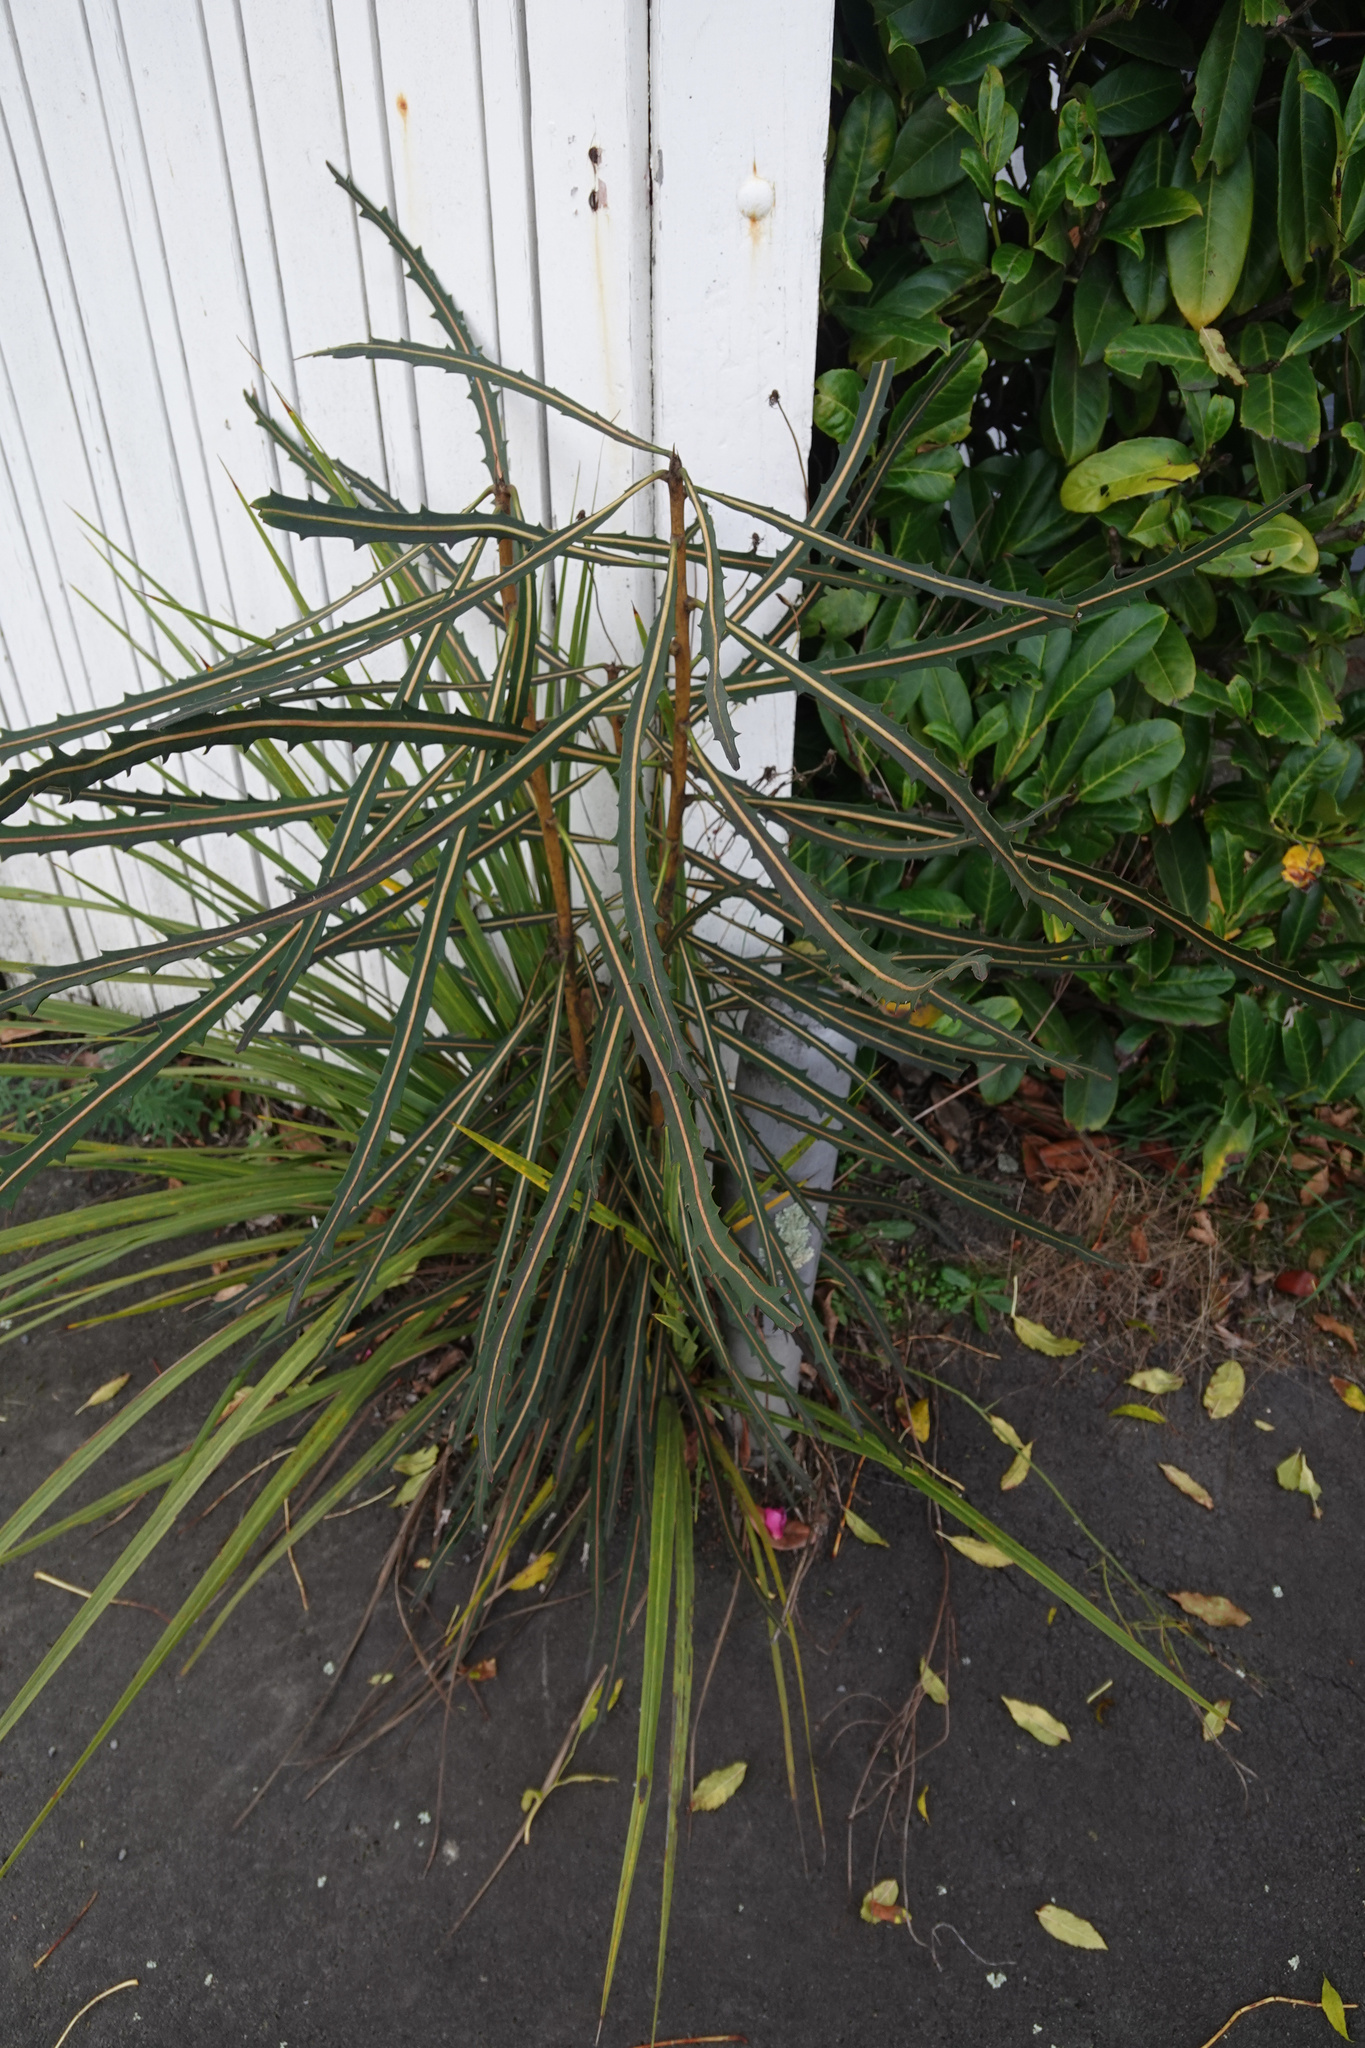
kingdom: Plantae
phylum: Tracheophyta
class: Liliopsida
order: Asparagales
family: Asparagaceae
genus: Cordyline
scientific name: Cordyline australis
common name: Cabbage-palm
